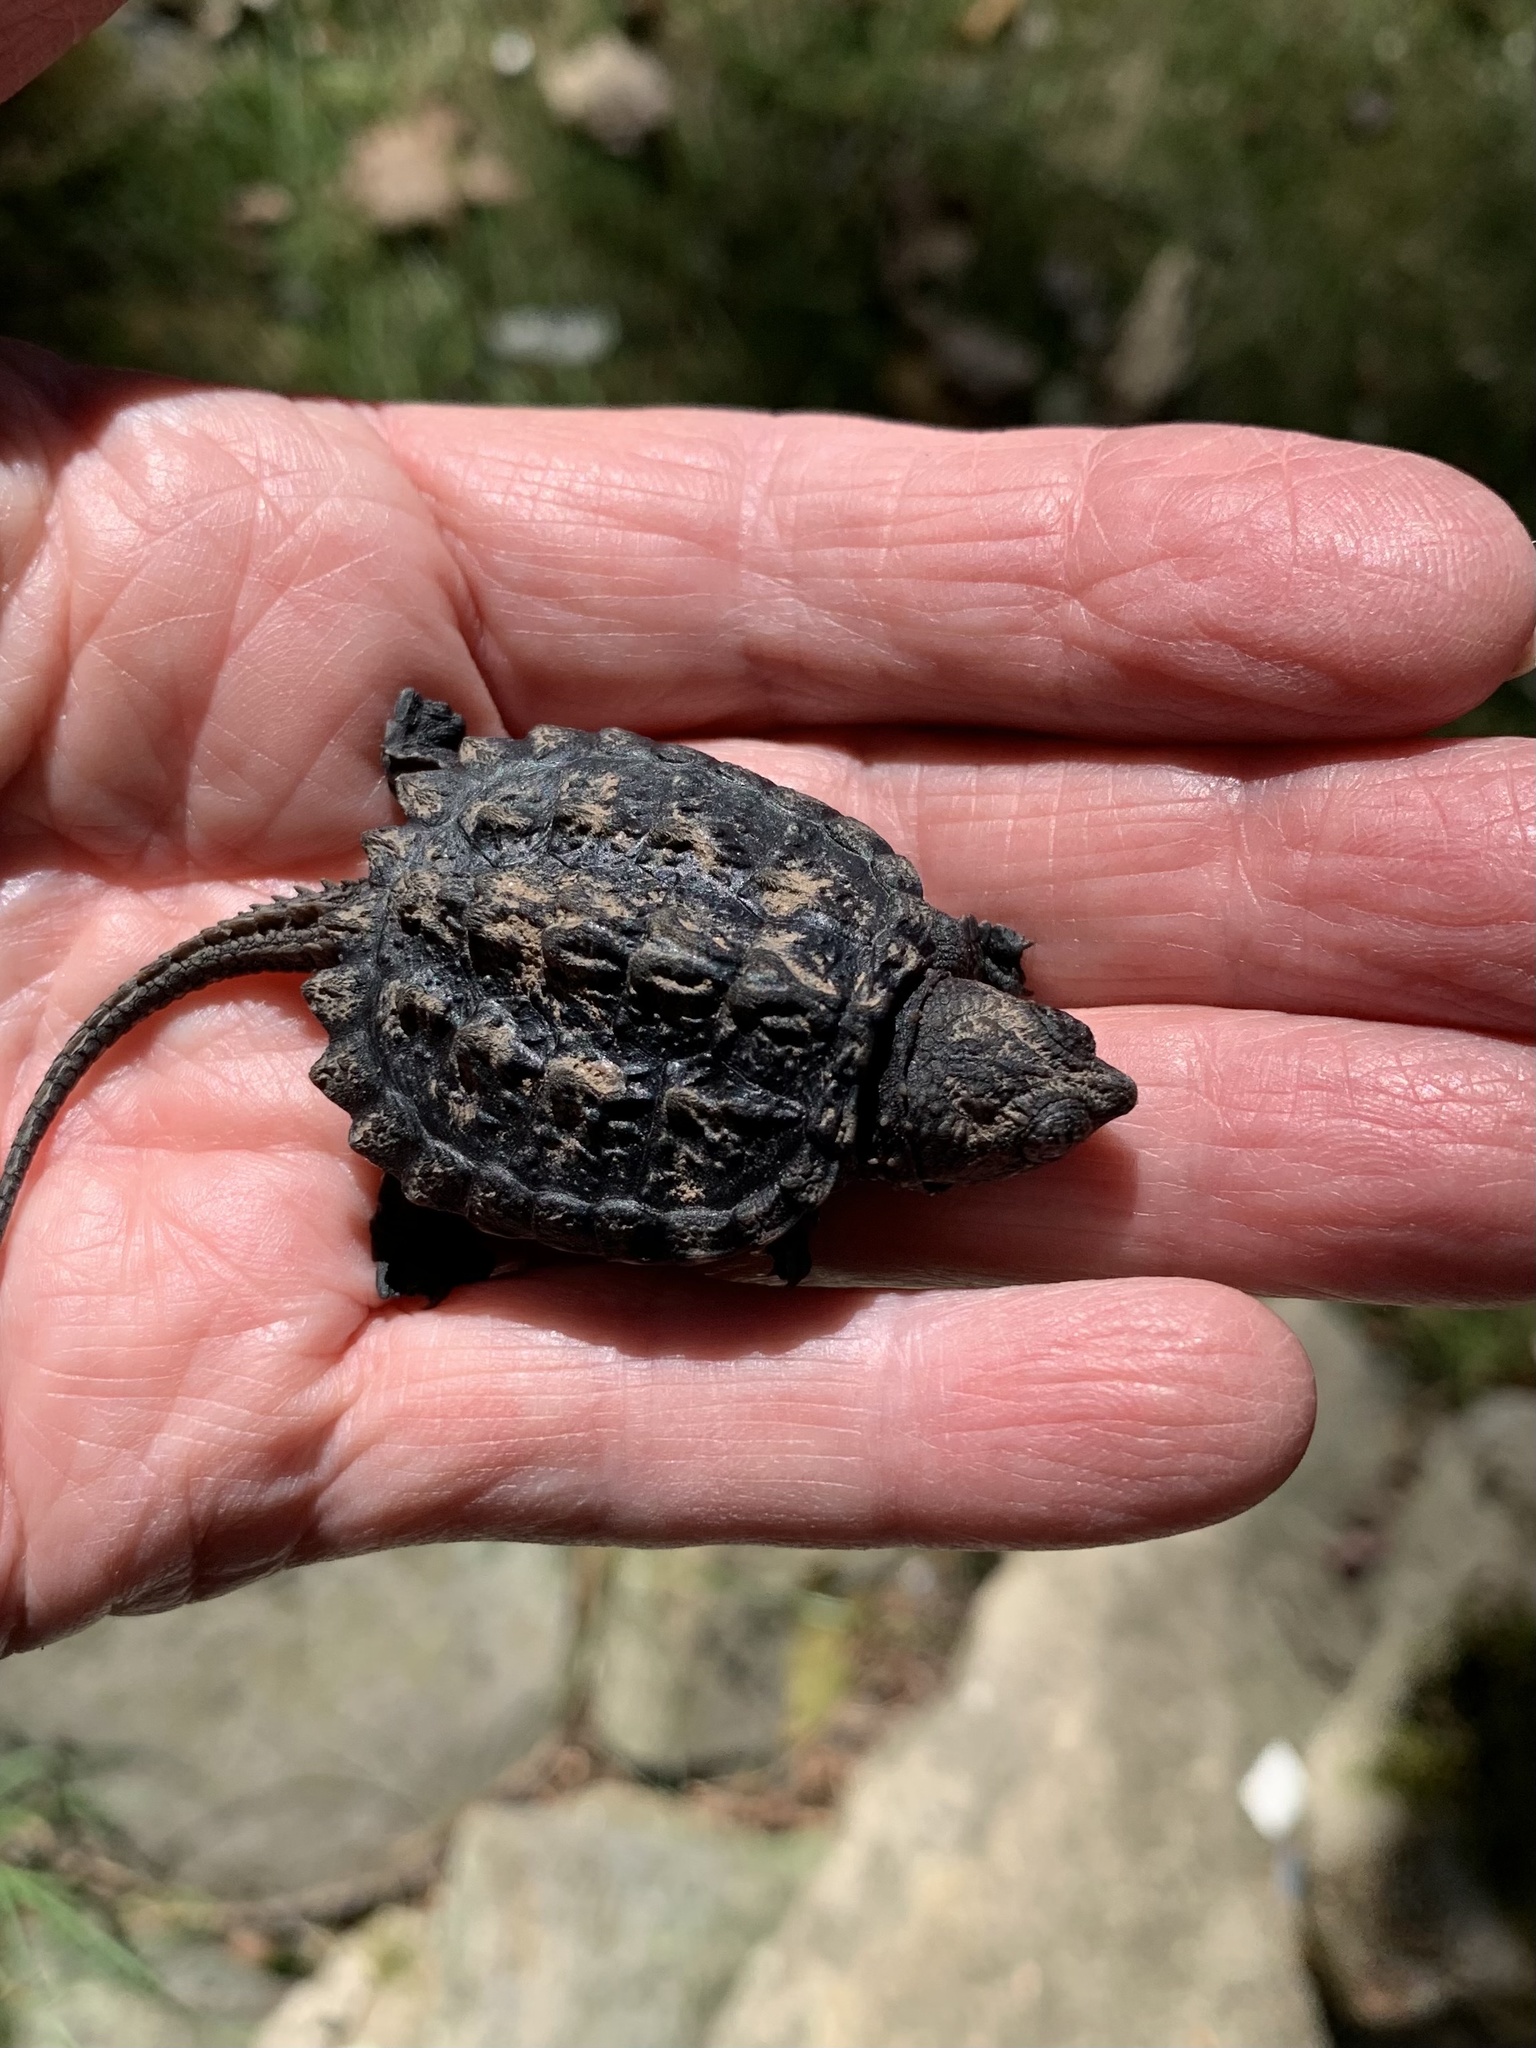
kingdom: Animalia
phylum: Chordata
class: Testudines
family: Chelydridae
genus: Chelydra
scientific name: Chelydra serpentina
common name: Common snapping turtle
